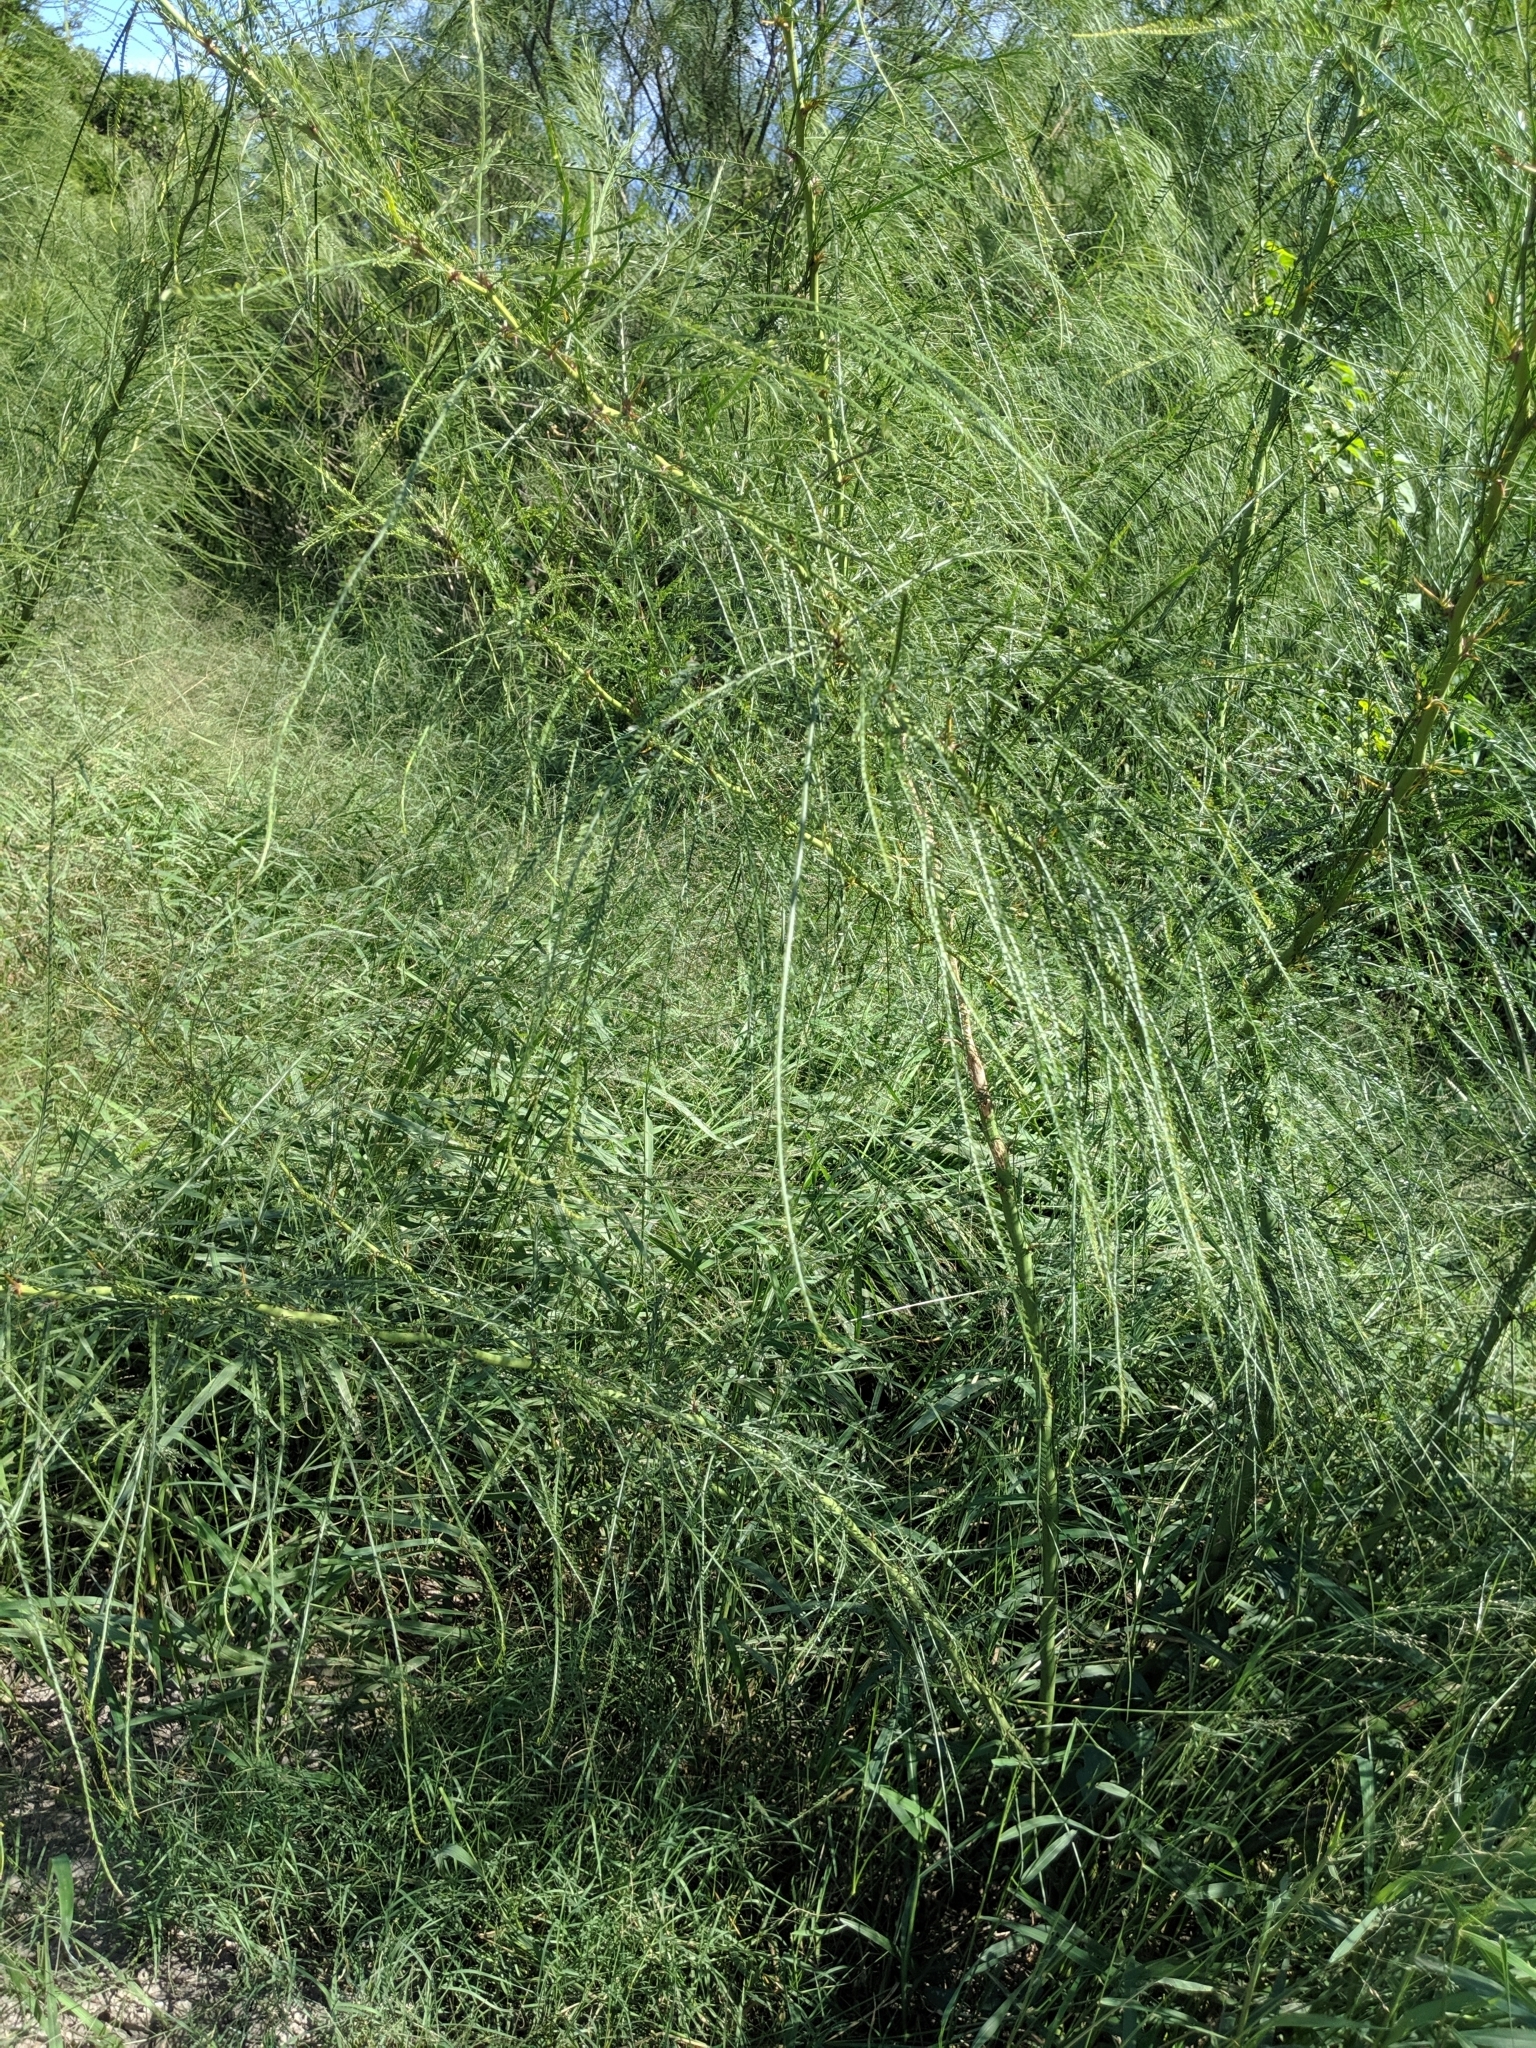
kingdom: Plantae
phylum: Tracheophyta
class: Magnoliopsida
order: Fabales
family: Fabaceae
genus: Parkinsonia
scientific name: Parkinsonia aculeata
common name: Jerusalem thorn
